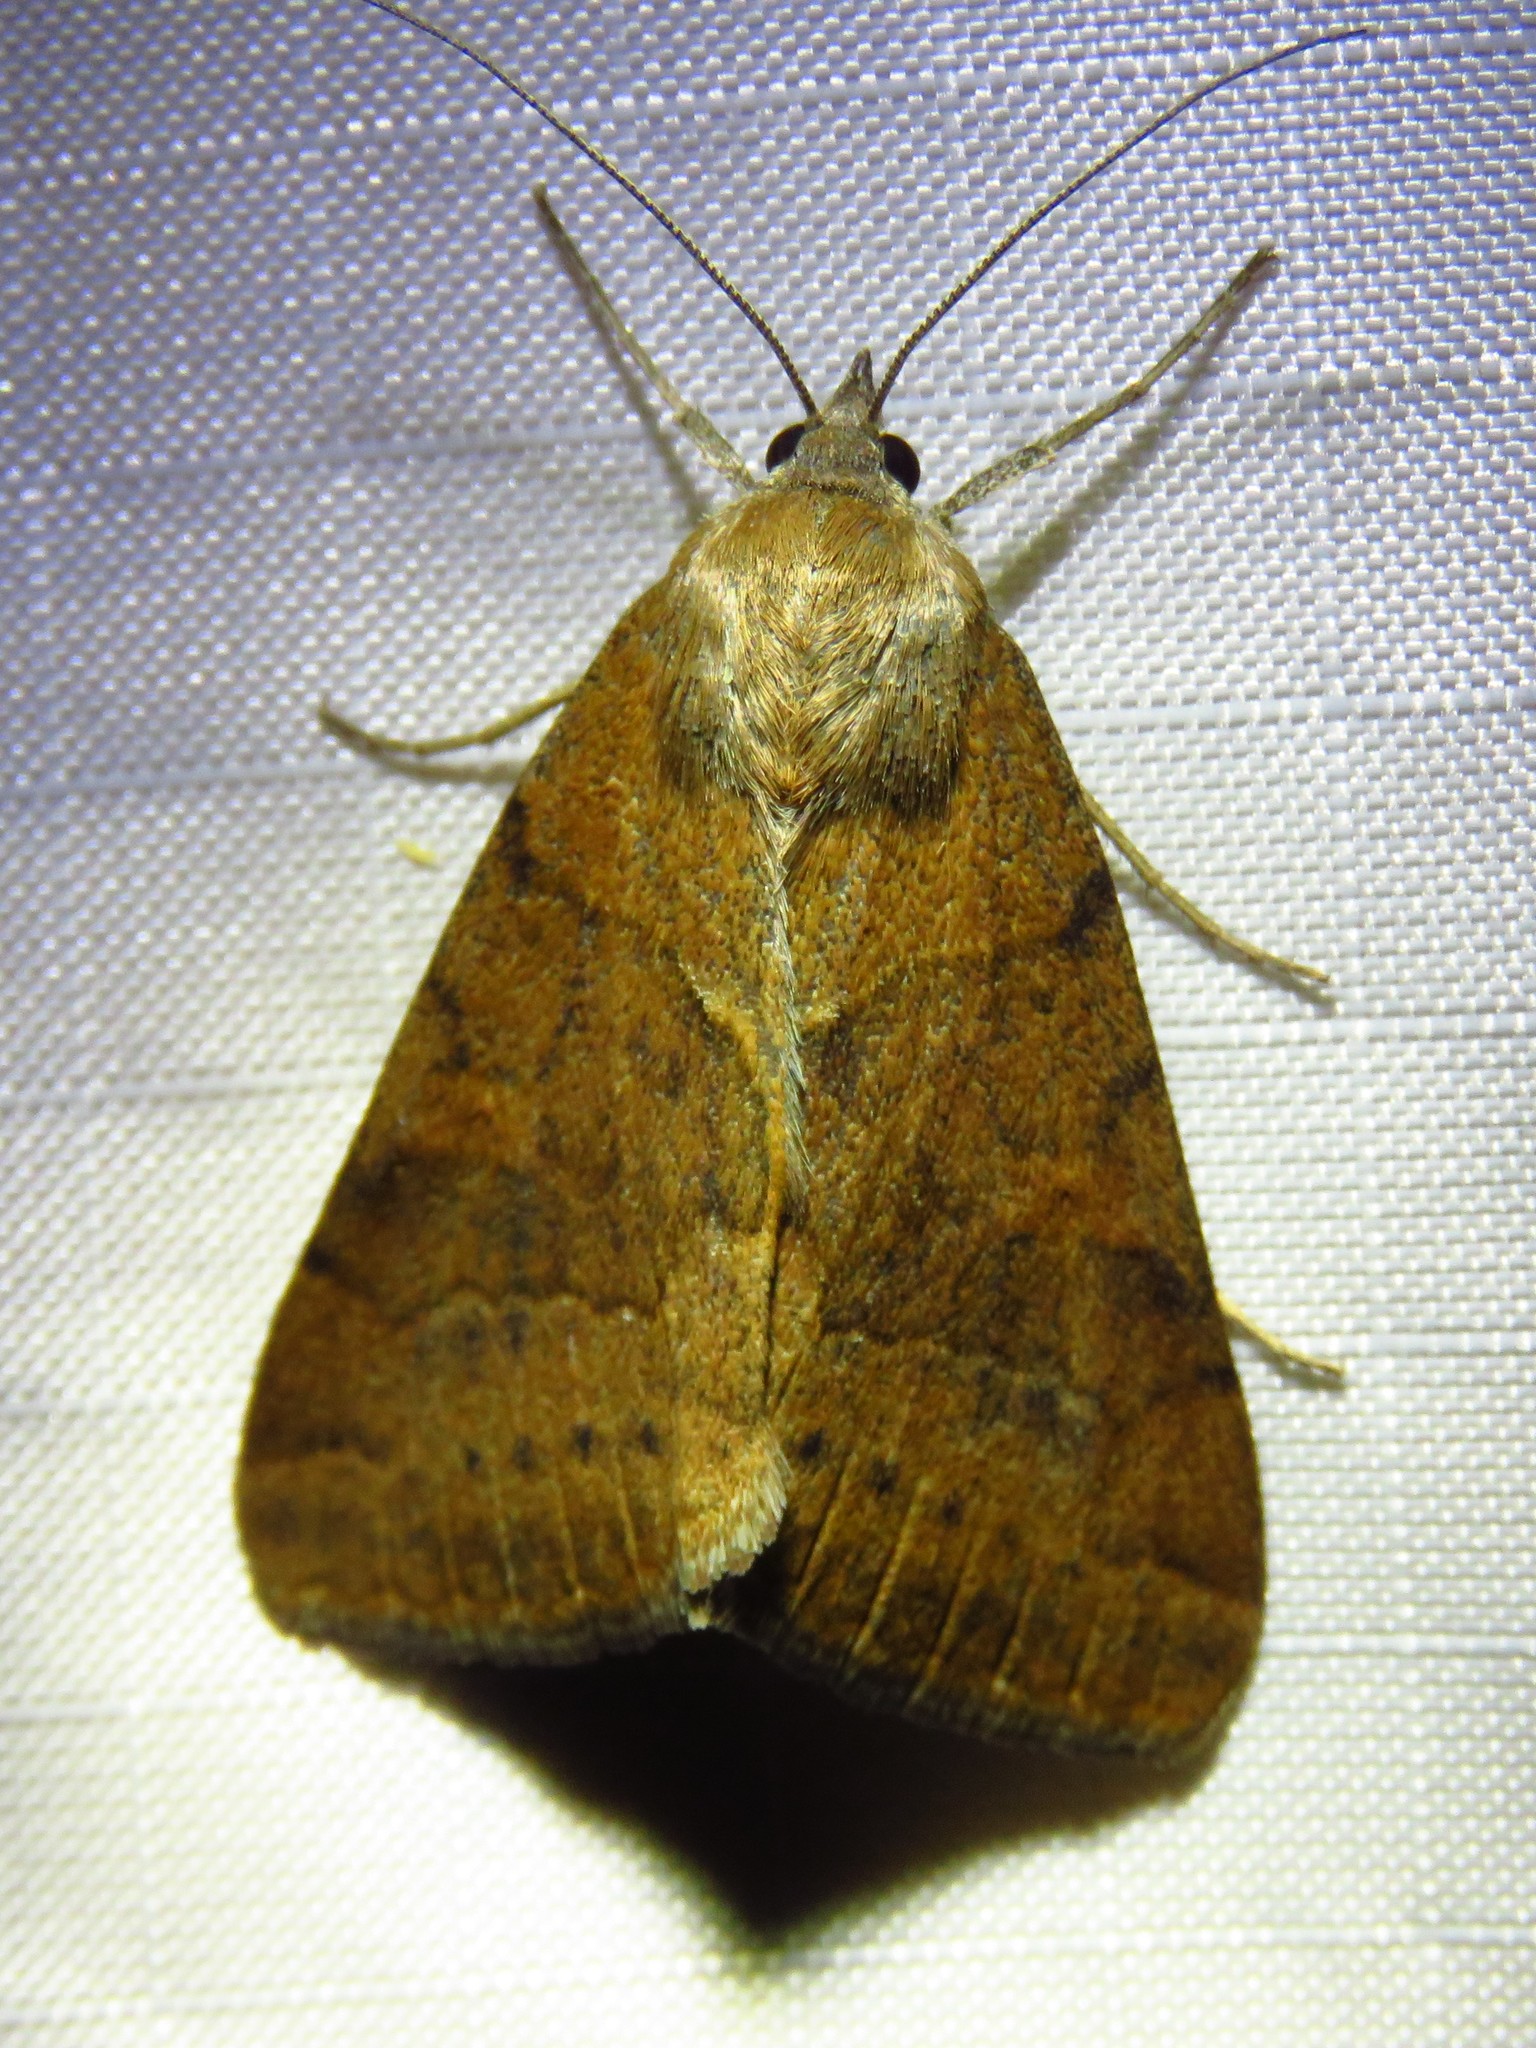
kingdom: Animalia
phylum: Arthropoda
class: Insecta
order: Lepidoptera
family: Erebidae
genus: Caenurgina
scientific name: Caenurgina erechtea
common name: Forage looper moth
